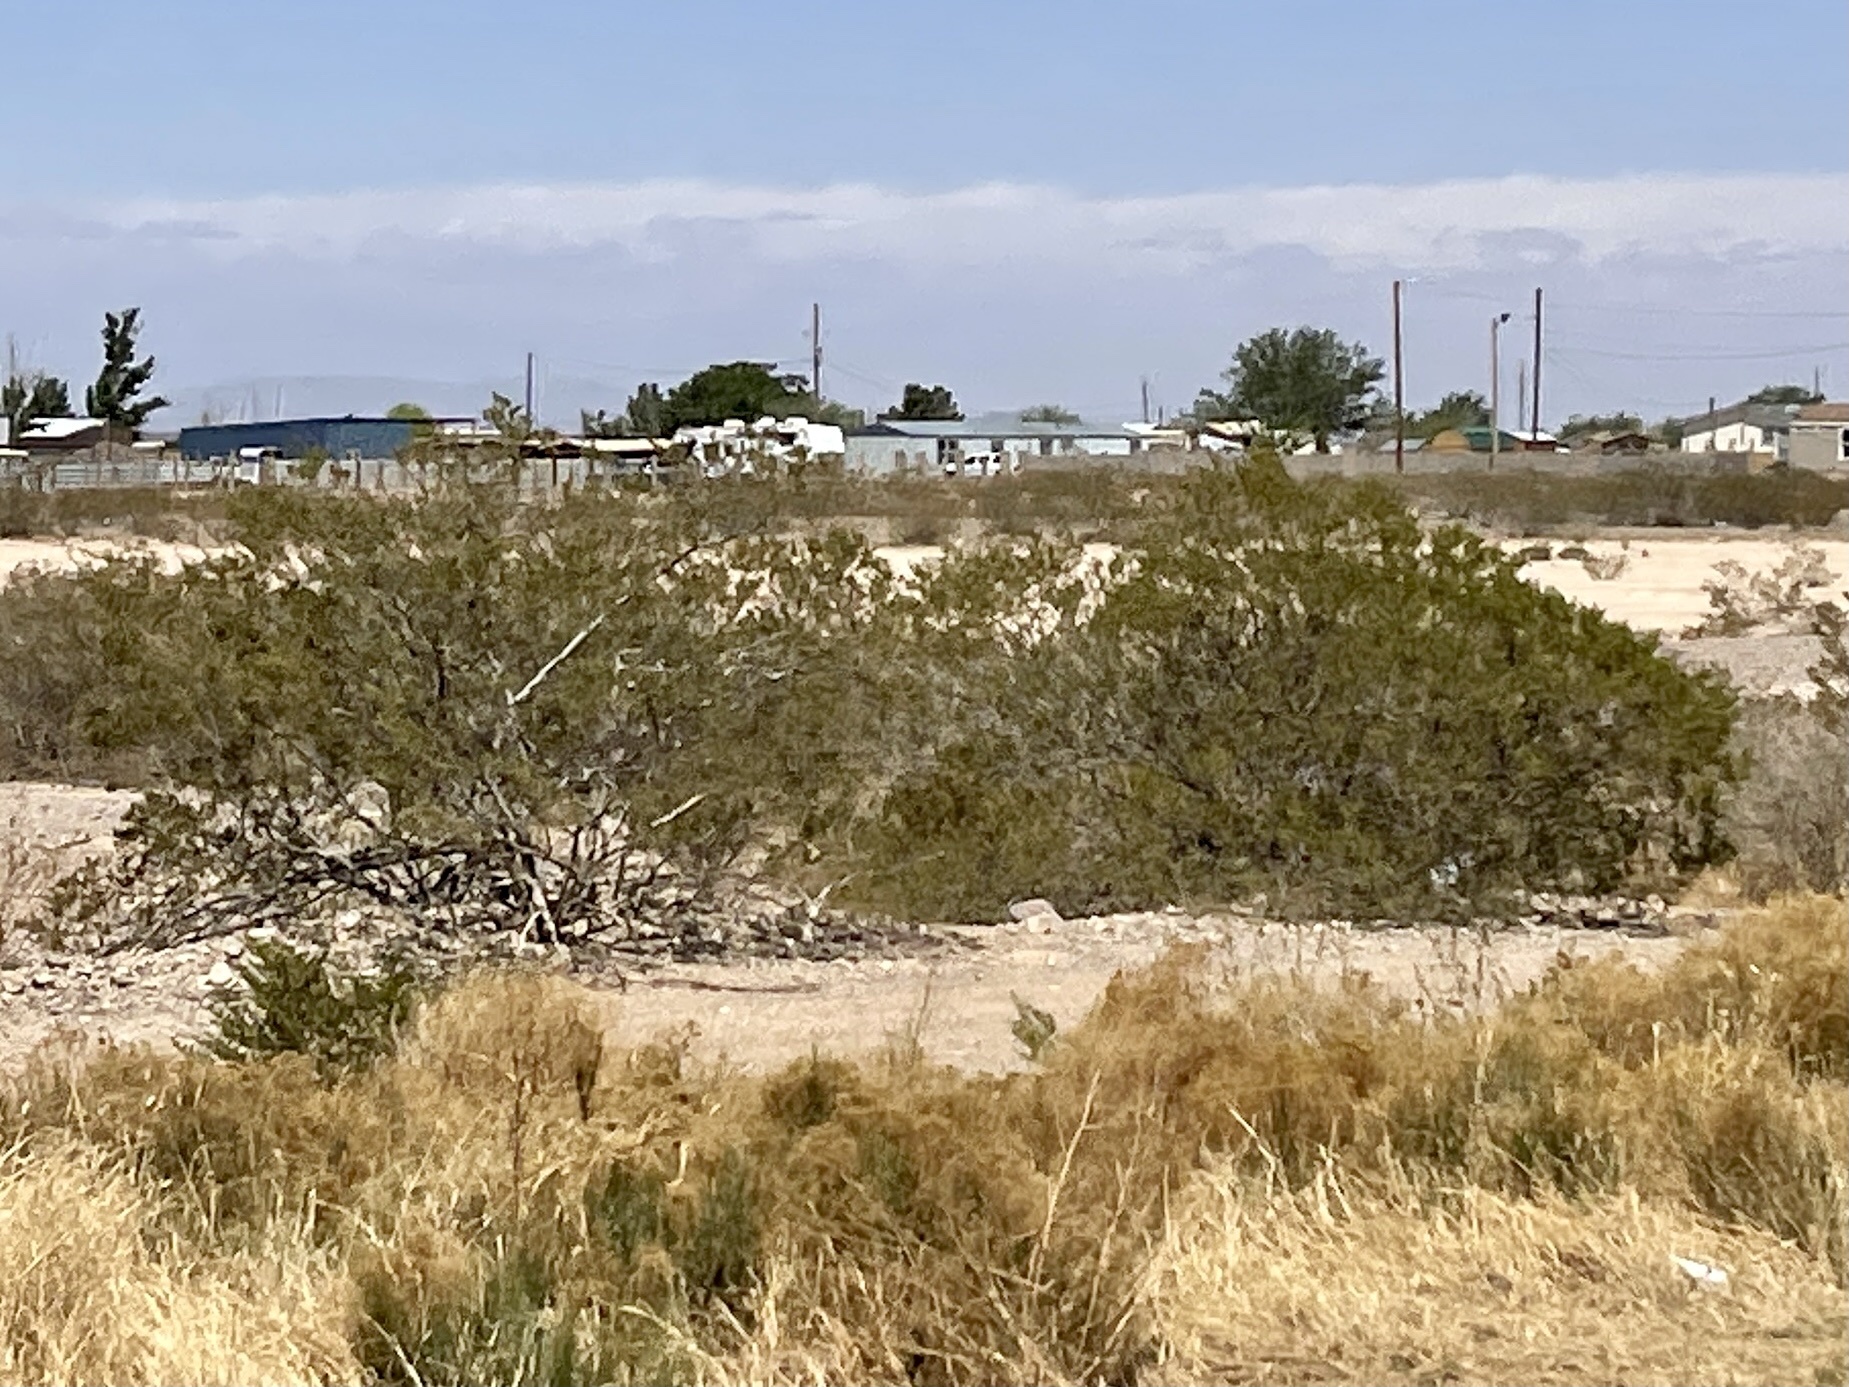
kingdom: Plantae
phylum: Tracheophyta
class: Magnoliopsida
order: Zygophyllales
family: Zygophyllaceae
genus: Larrea
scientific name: Larrea tridentata
